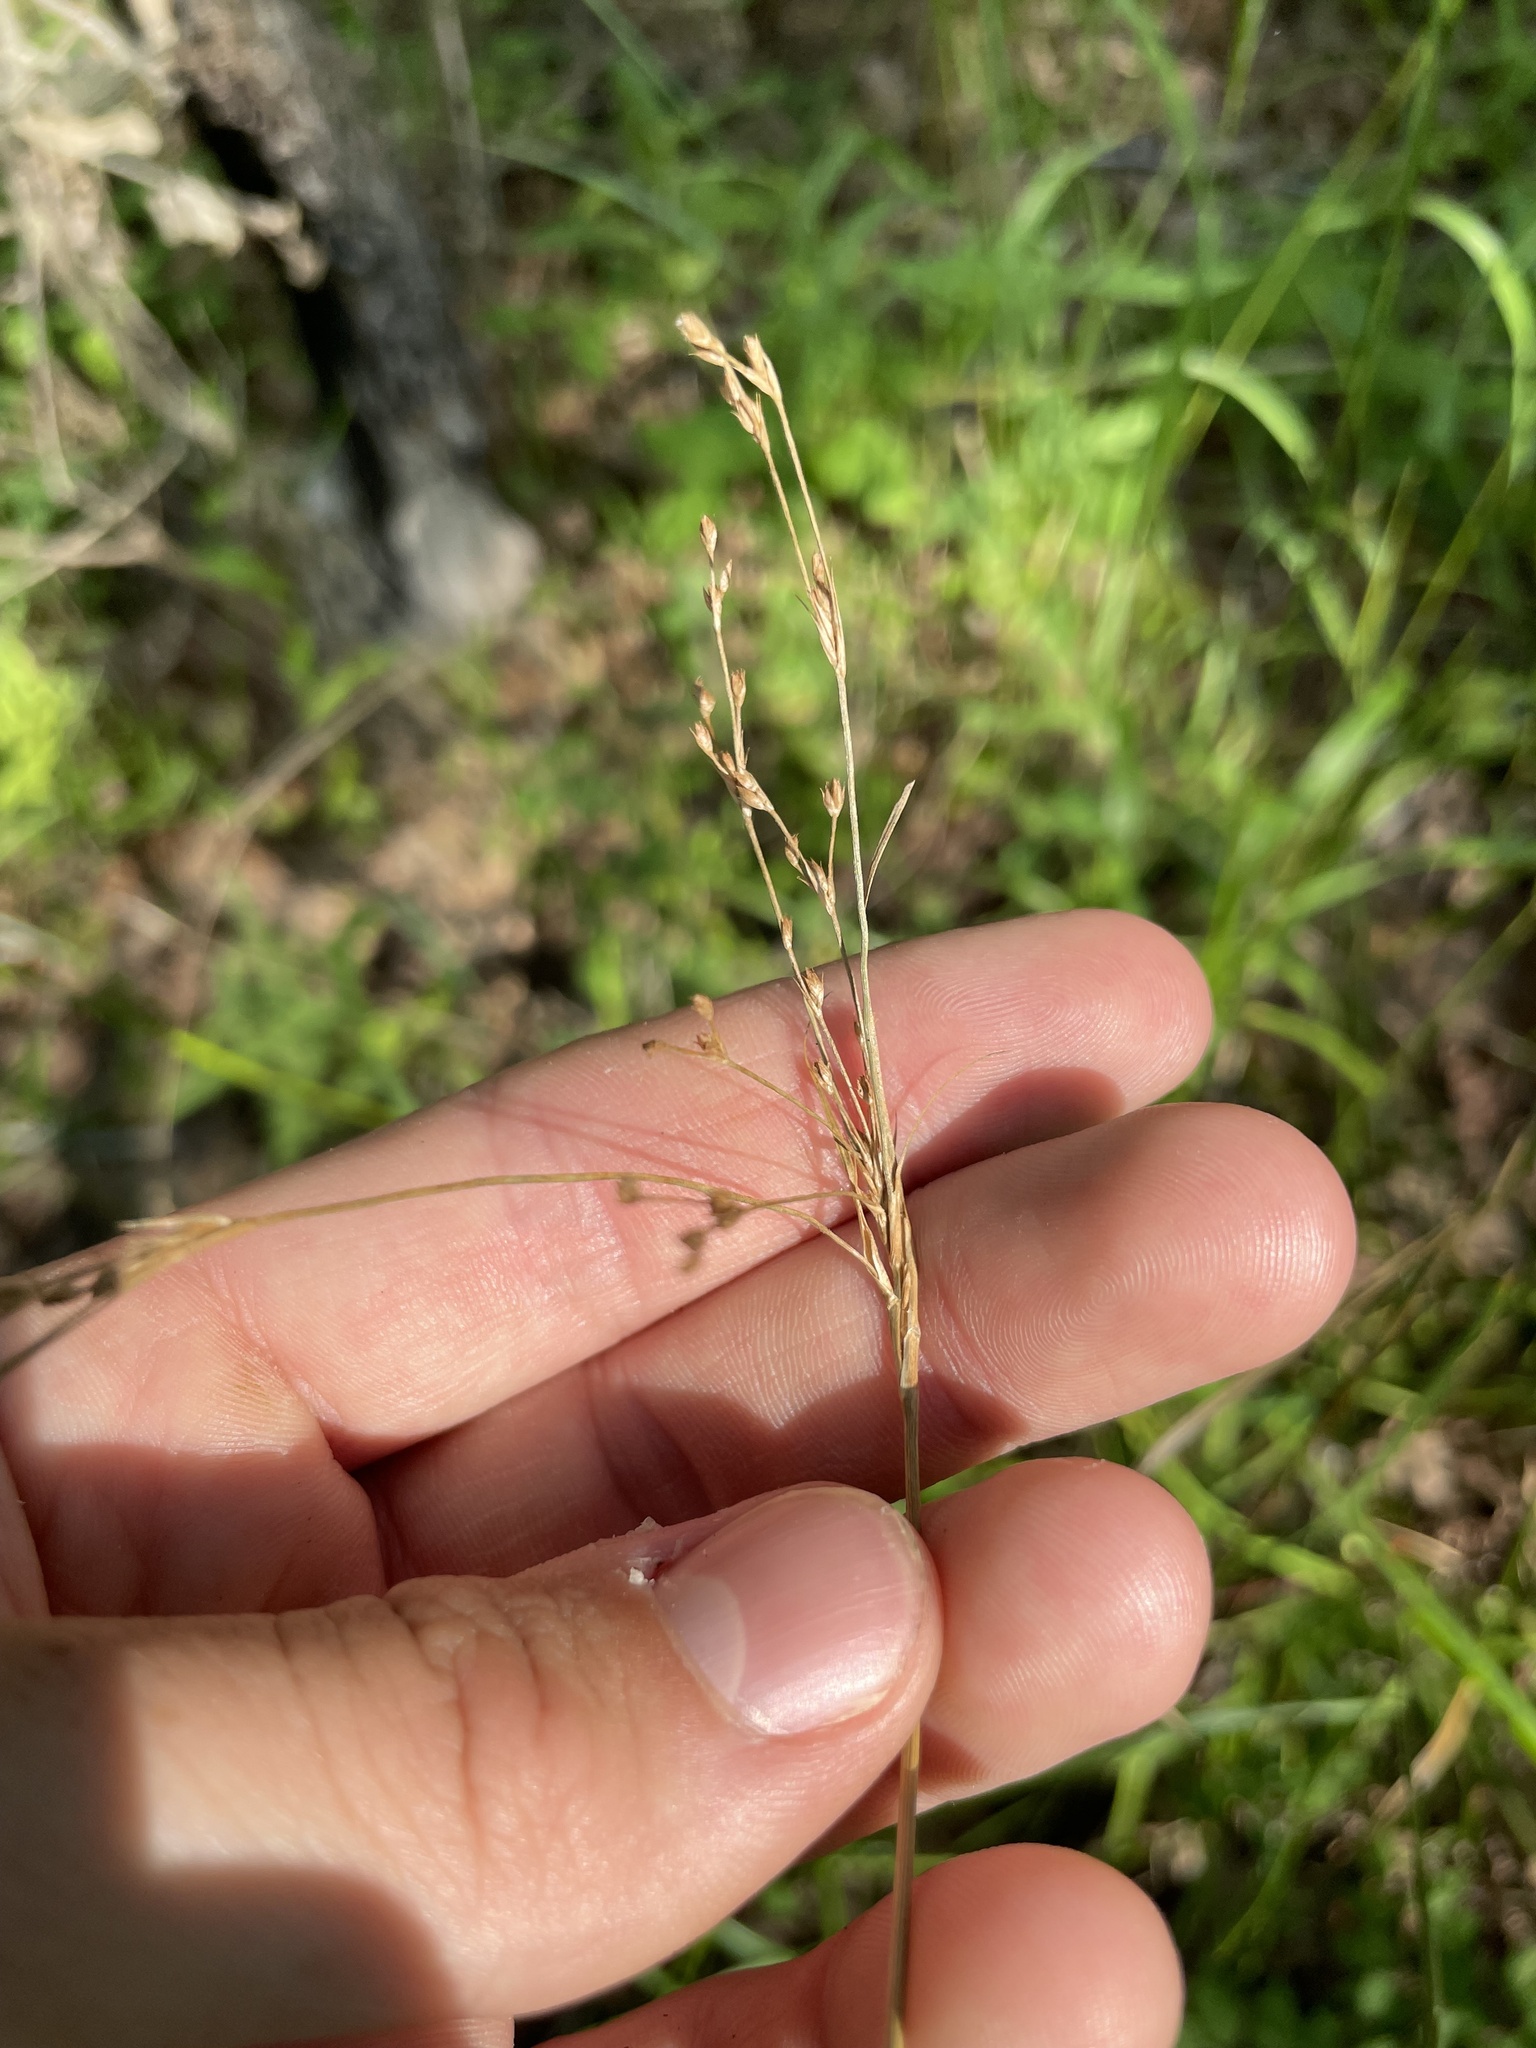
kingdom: Plantae
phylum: Tracheophyta
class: Liliopsida
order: Poales
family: Cyperaceae
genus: Scirpus
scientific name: Scirpus pendulus
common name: Nodding bulrush
